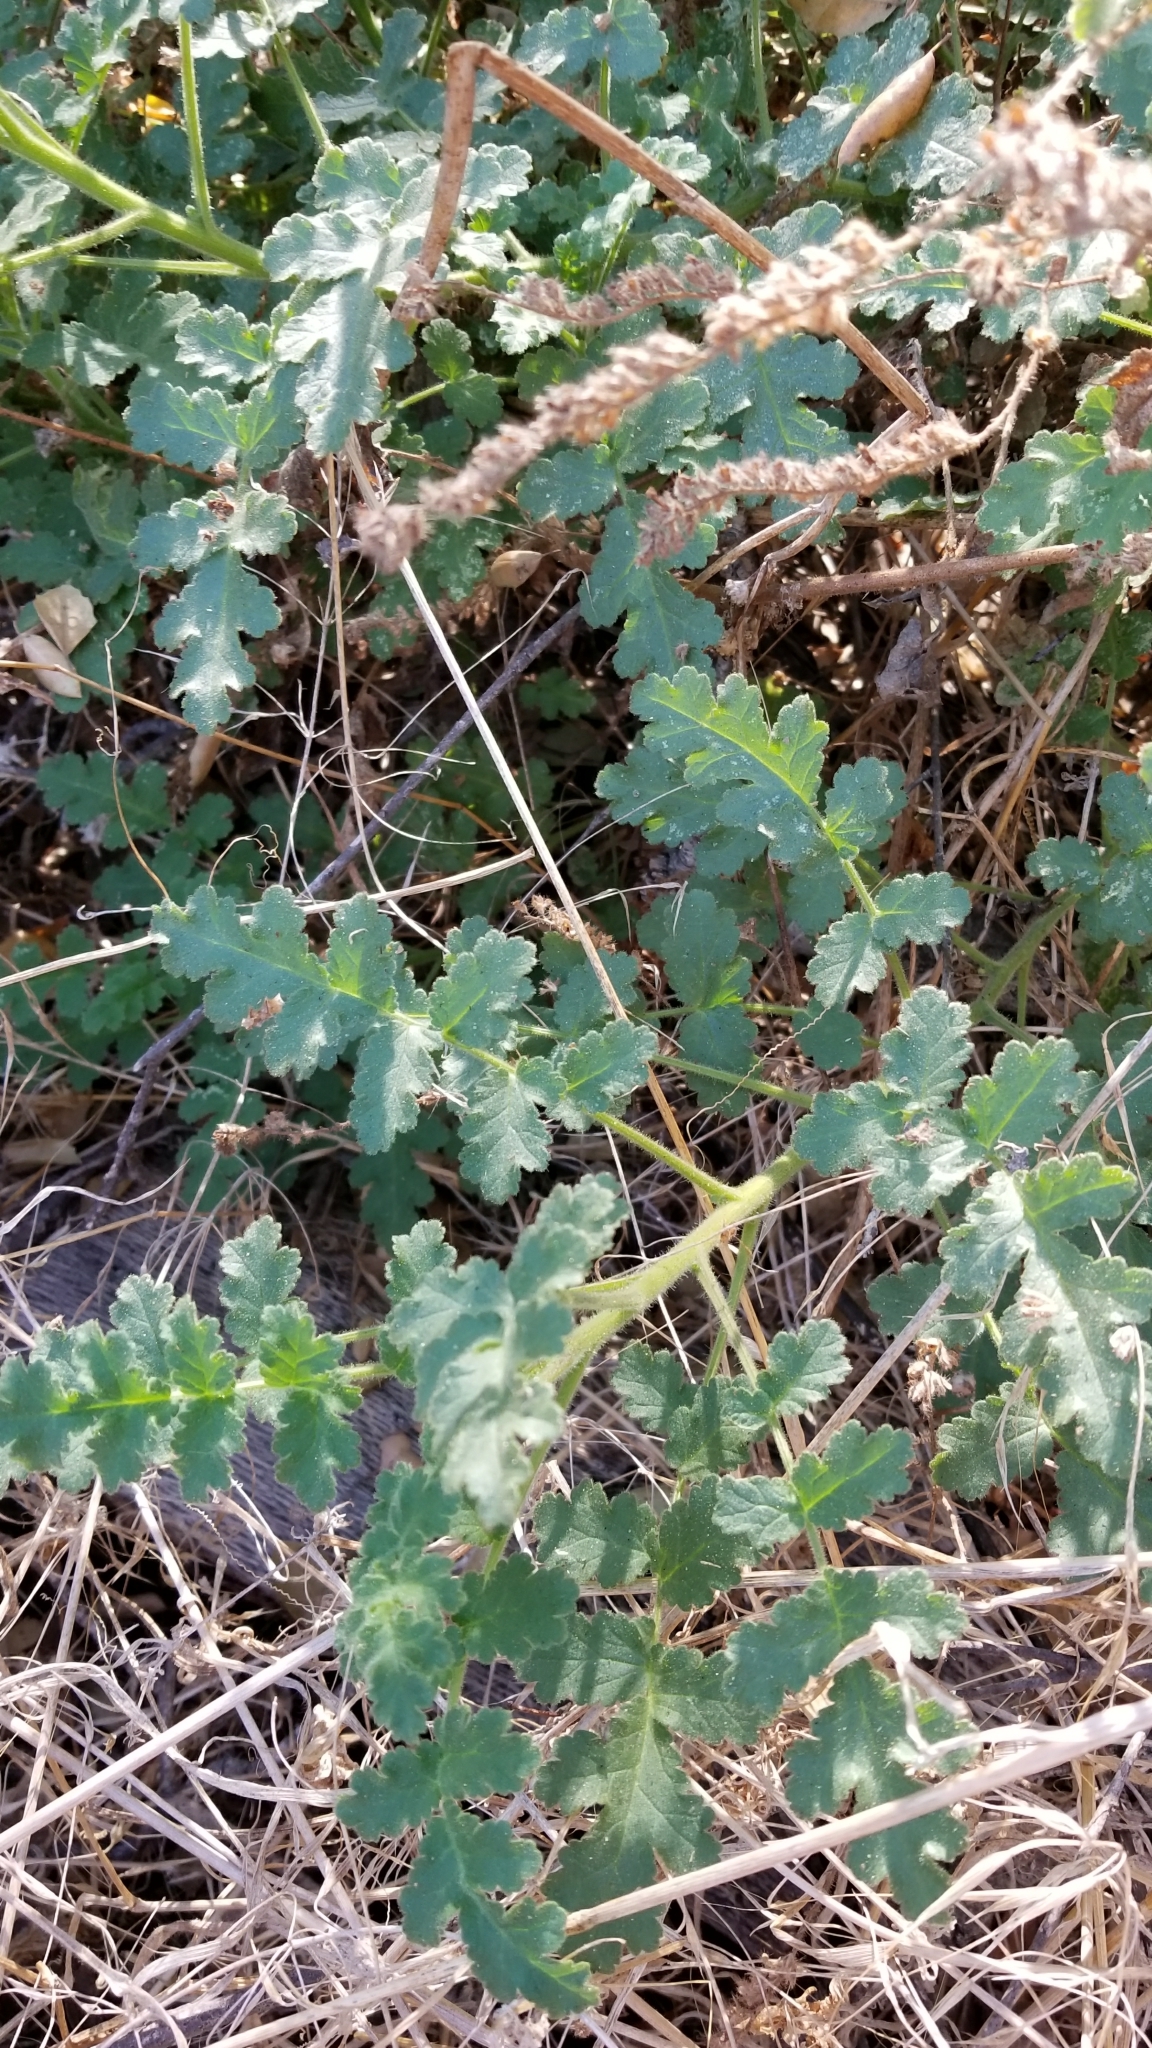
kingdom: Plantae
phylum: Tracheophyta
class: Magnoliopsida
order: Boraginales
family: Hydrophyllaceae
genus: Phacelia
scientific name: Phacelia ramosissima
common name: Branching phacelia
